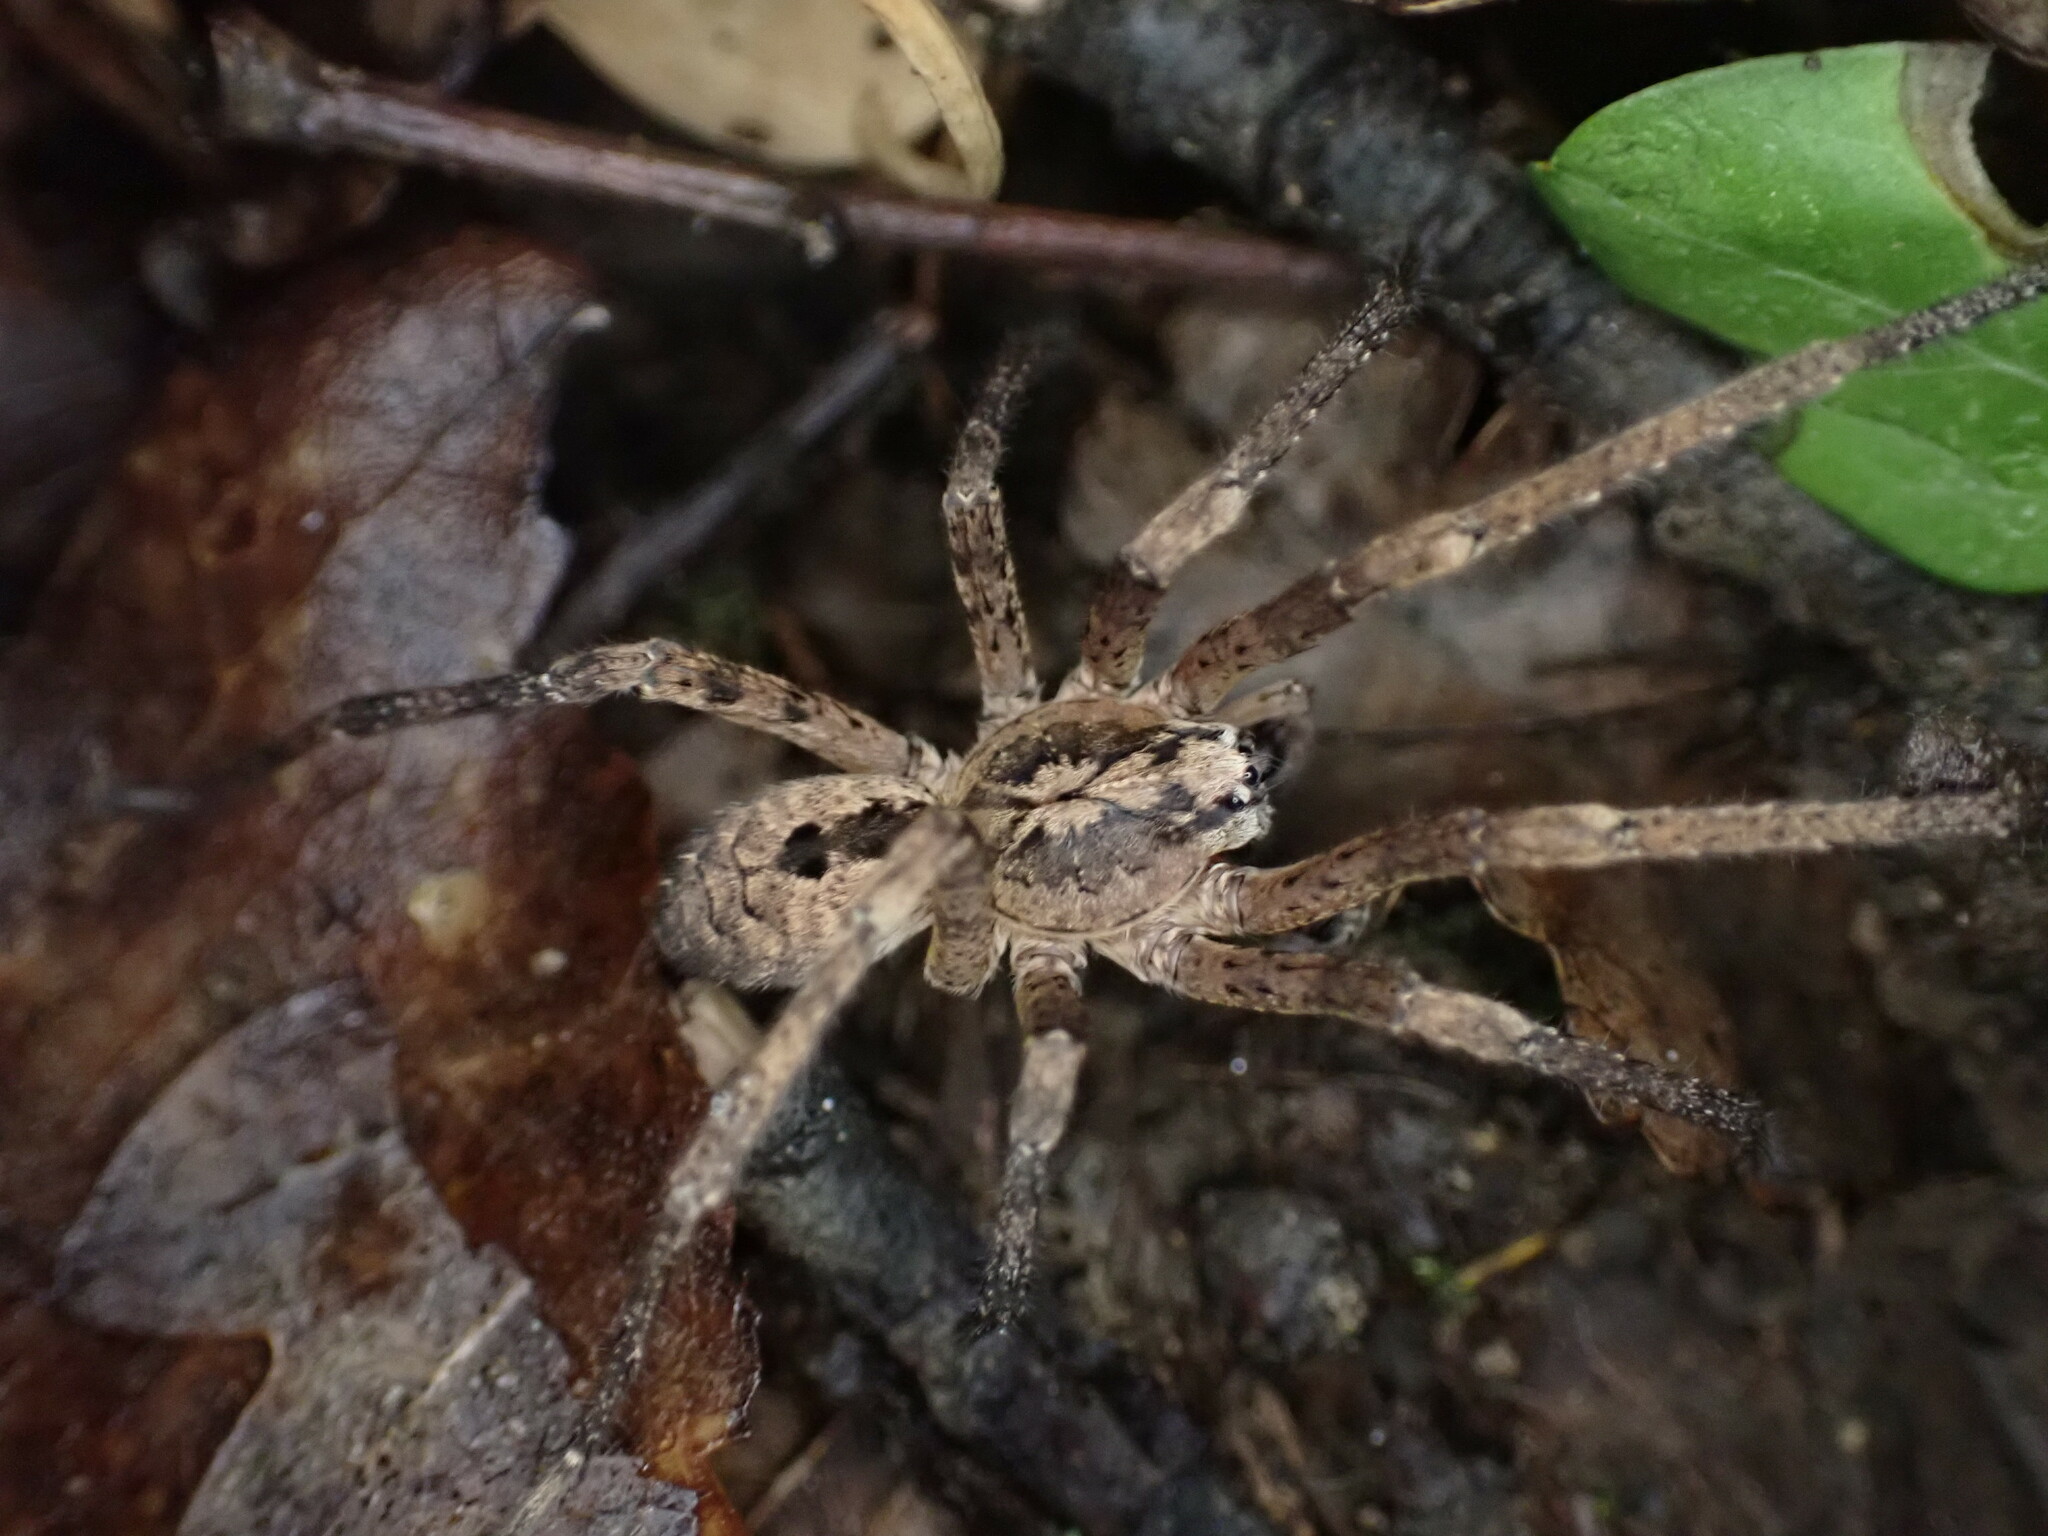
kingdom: Animalia
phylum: Arthropoda
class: Arachnida
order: Araneae
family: Zoropsidae
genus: Zoropsis
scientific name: Zoropsis spinimana
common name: Zoropsid spider
